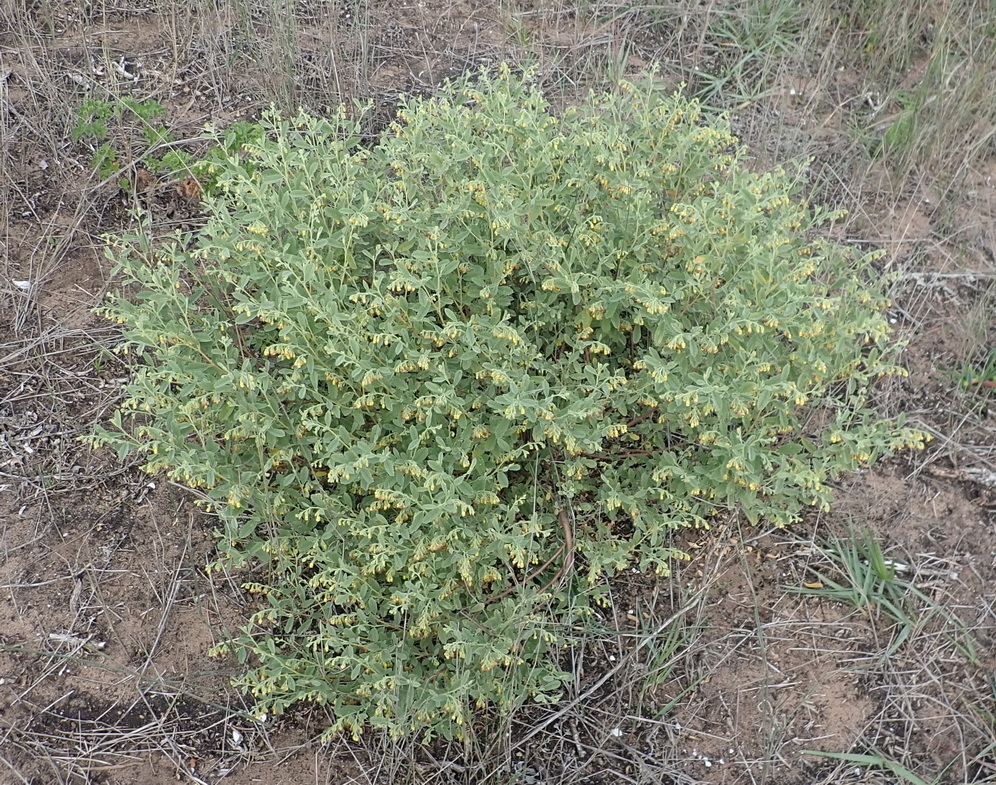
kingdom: Plantae
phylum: Tracheophyta
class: Magnoliopsida
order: Malvales
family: Malvaceae
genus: Hermannia
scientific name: Hermannia holosericea
